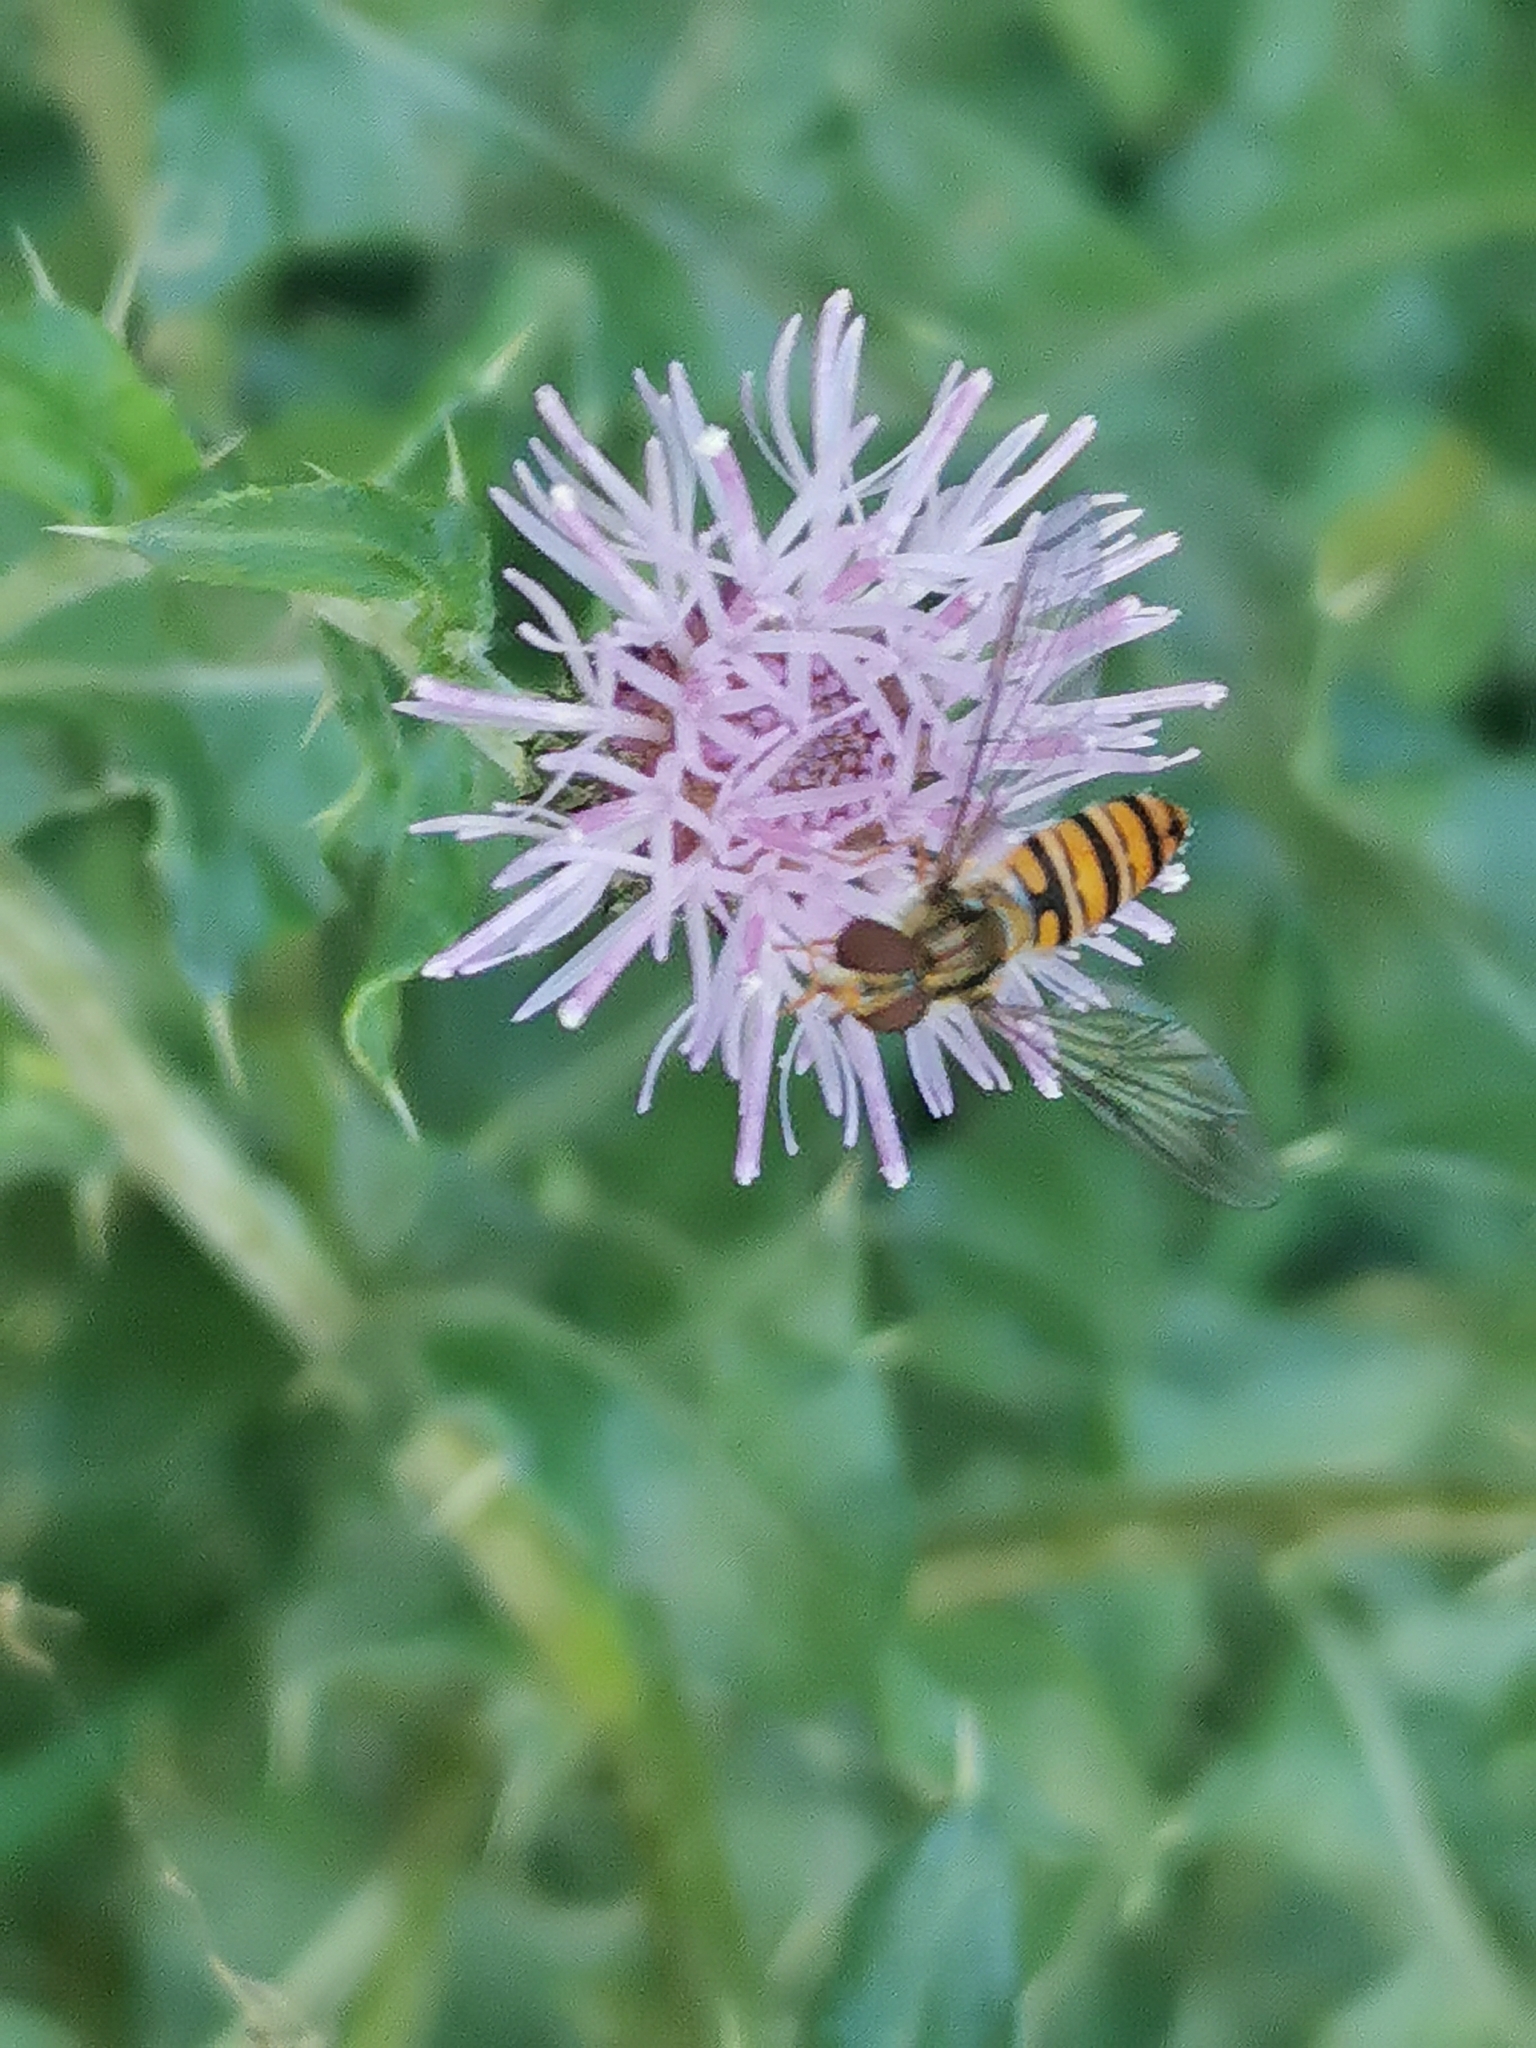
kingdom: Animalia
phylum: Arthropoda
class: Insecta
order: Diptera
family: Syrphidae
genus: Episyrphus
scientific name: Episyrphus balteatus
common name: Marmalade hoverfly
